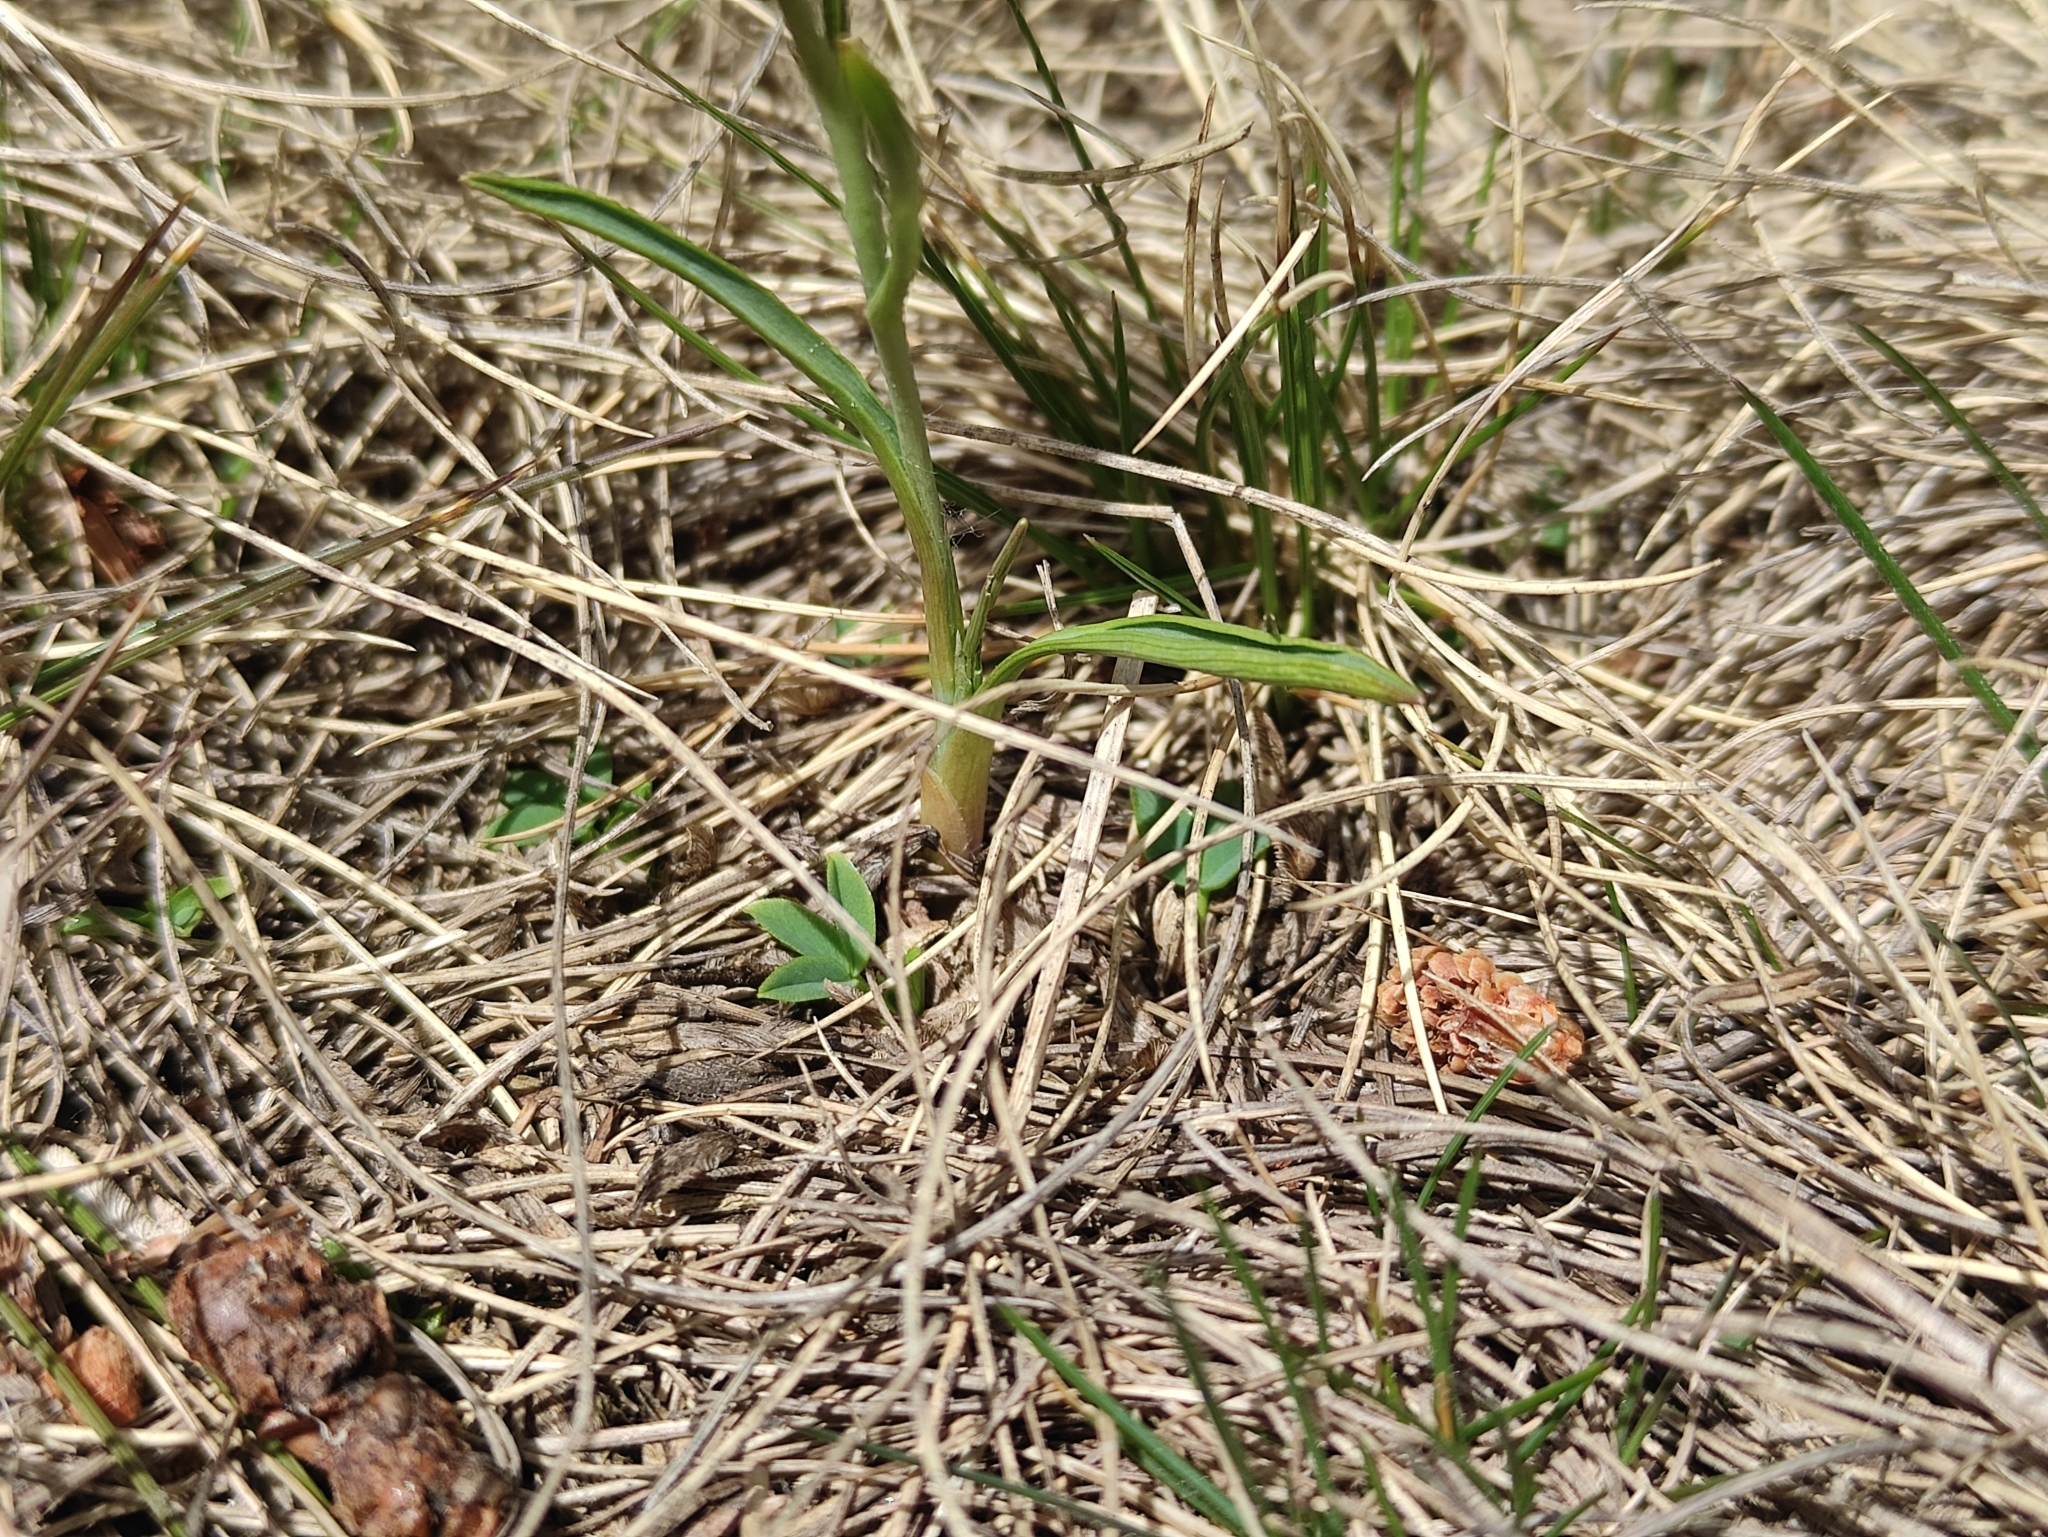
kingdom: Plantae
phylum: Tracheophyta
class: Magnoliopsida
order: Ranunculales
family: Ranunculaceae
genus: Ranunculus
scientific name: Ranunculus pyrenaeus
